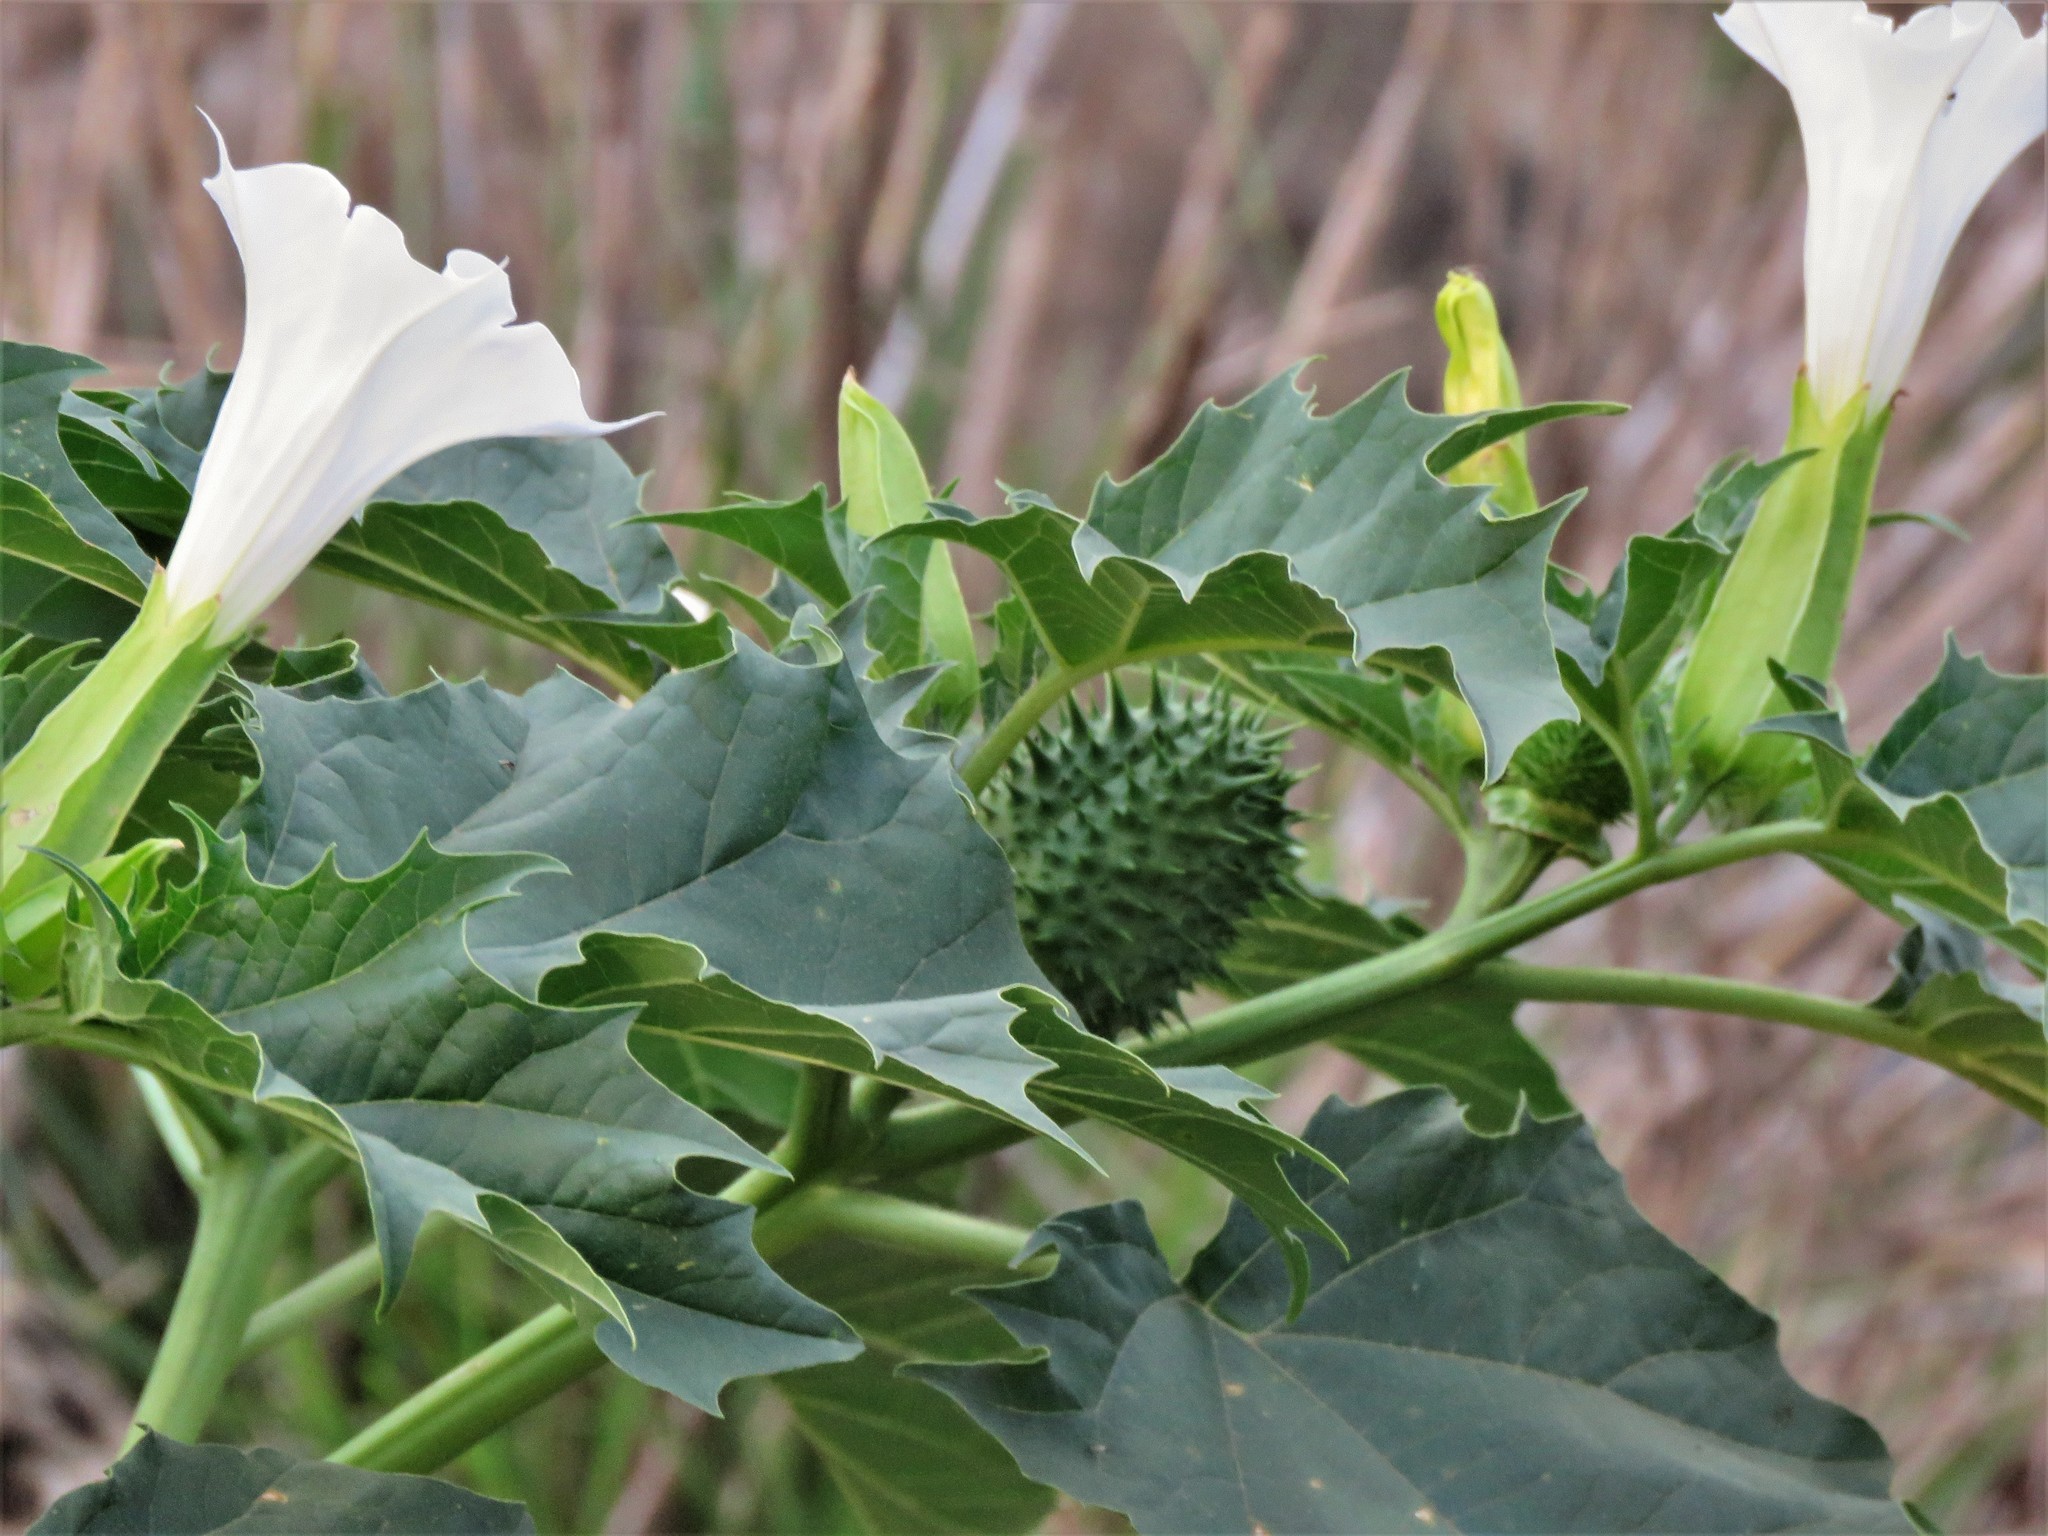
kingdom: Plantae
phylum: Tracheophyta
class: Magnoliopsida
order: Solanales
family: Solanaceae
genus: Datura
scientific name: Datura stramonium
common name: Thorn-apple
